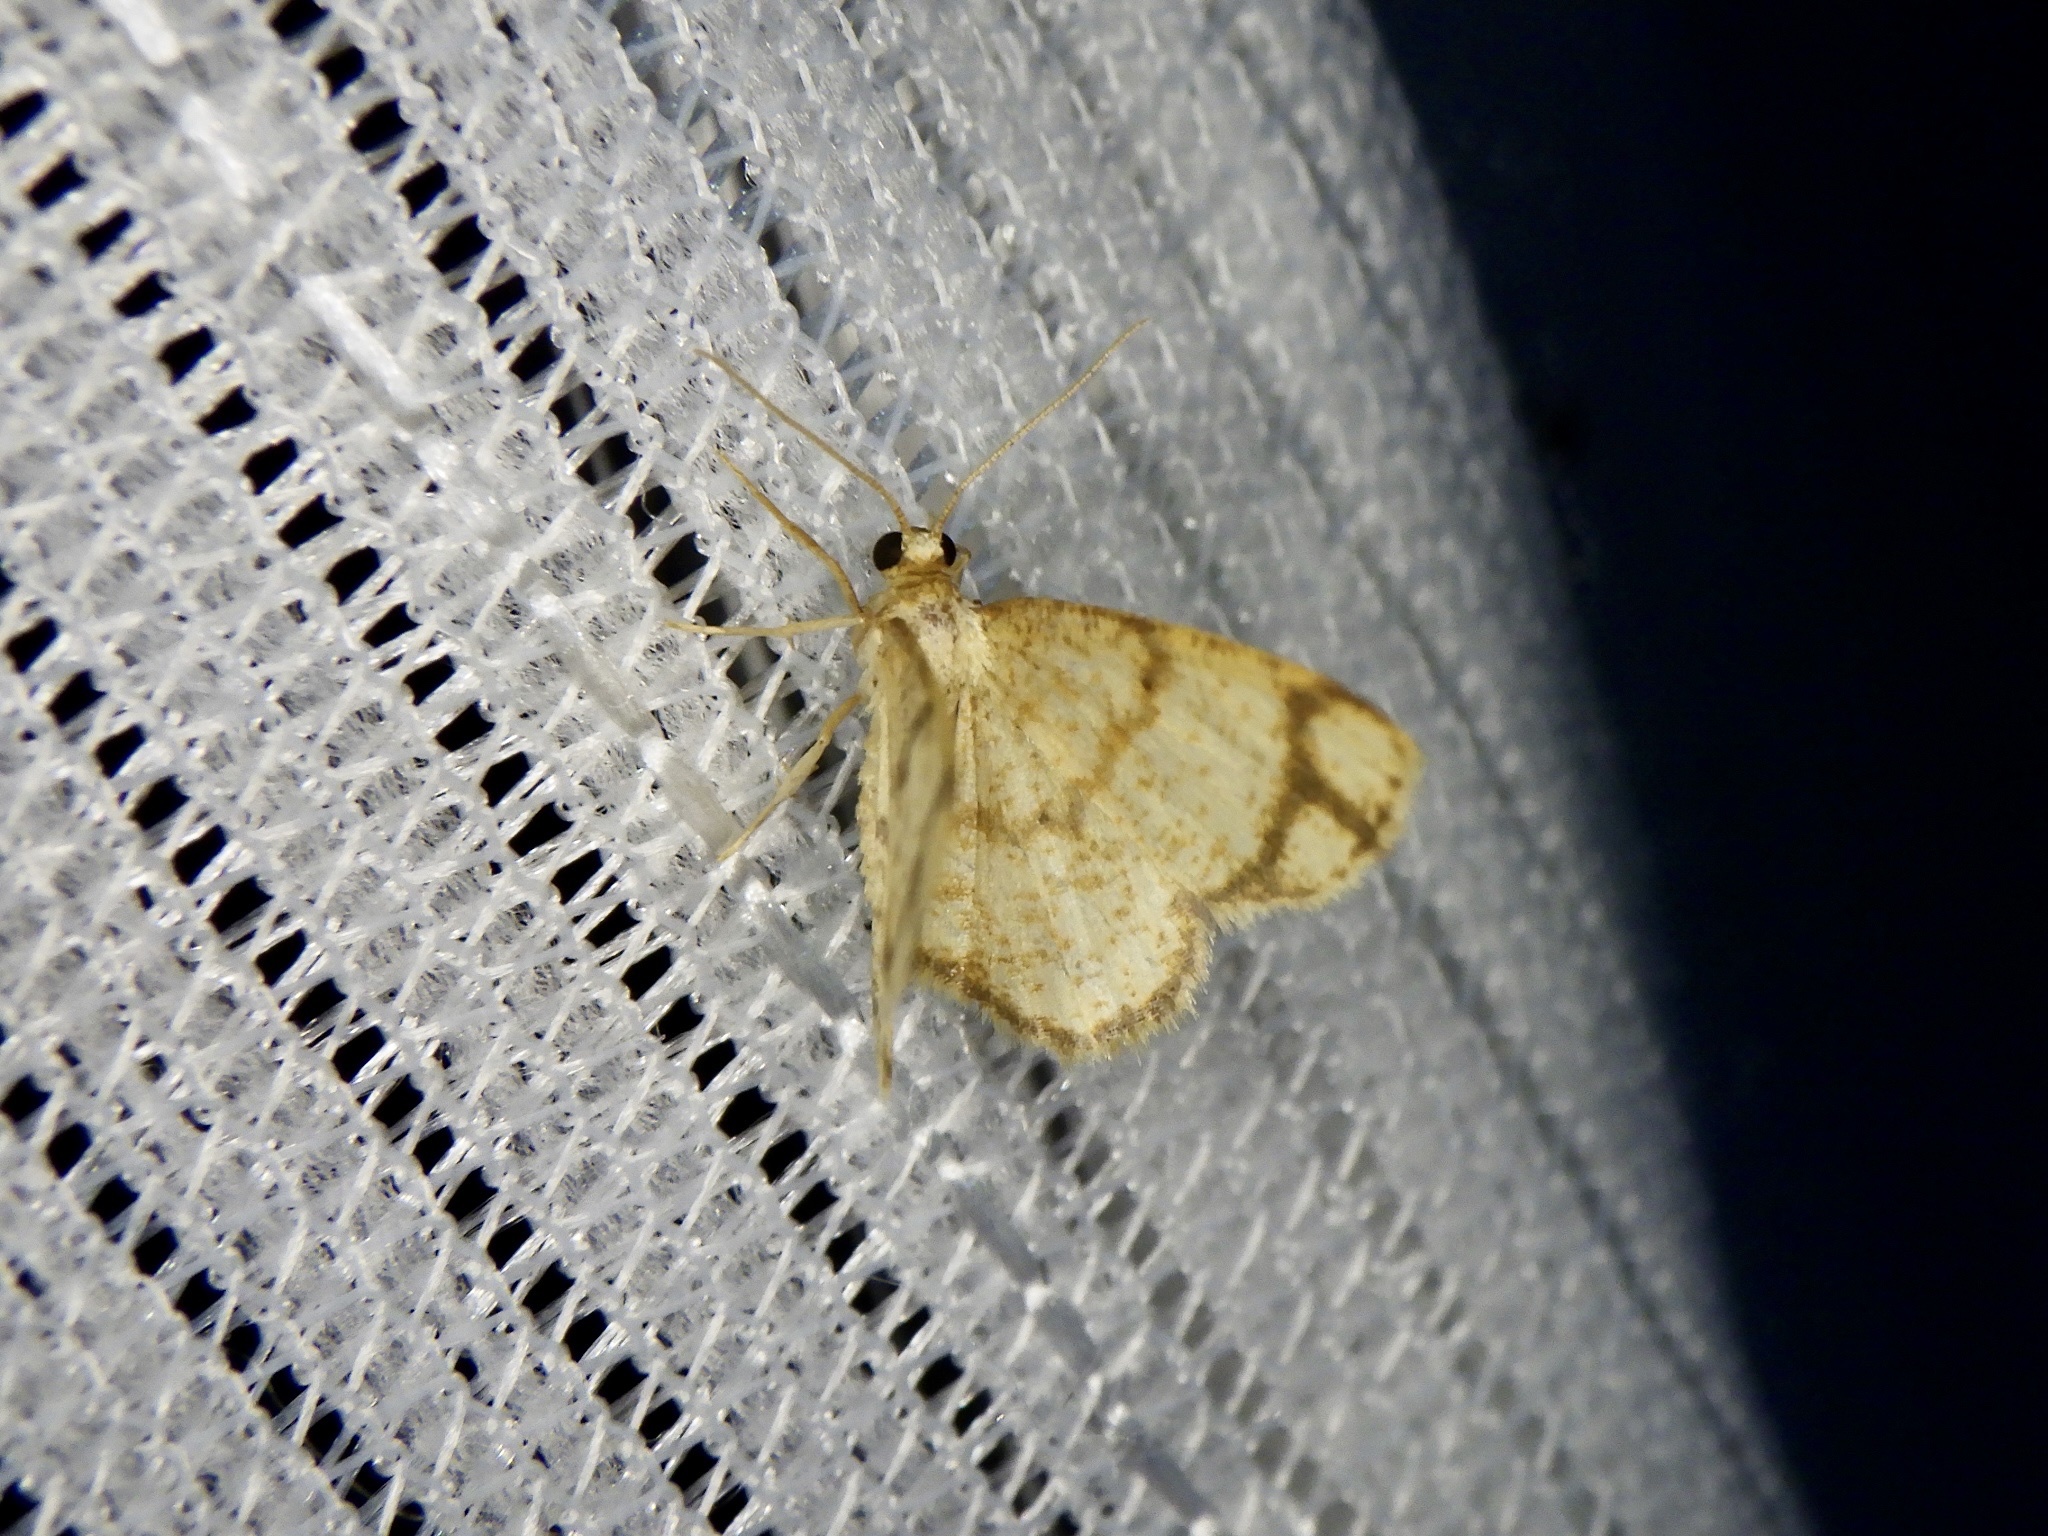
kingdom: Animalia
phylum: Arthropoda
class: Insecta
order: Lepidoptera
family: Geometridae
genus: Heterostegane
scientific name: Heterostegane hyriaria
